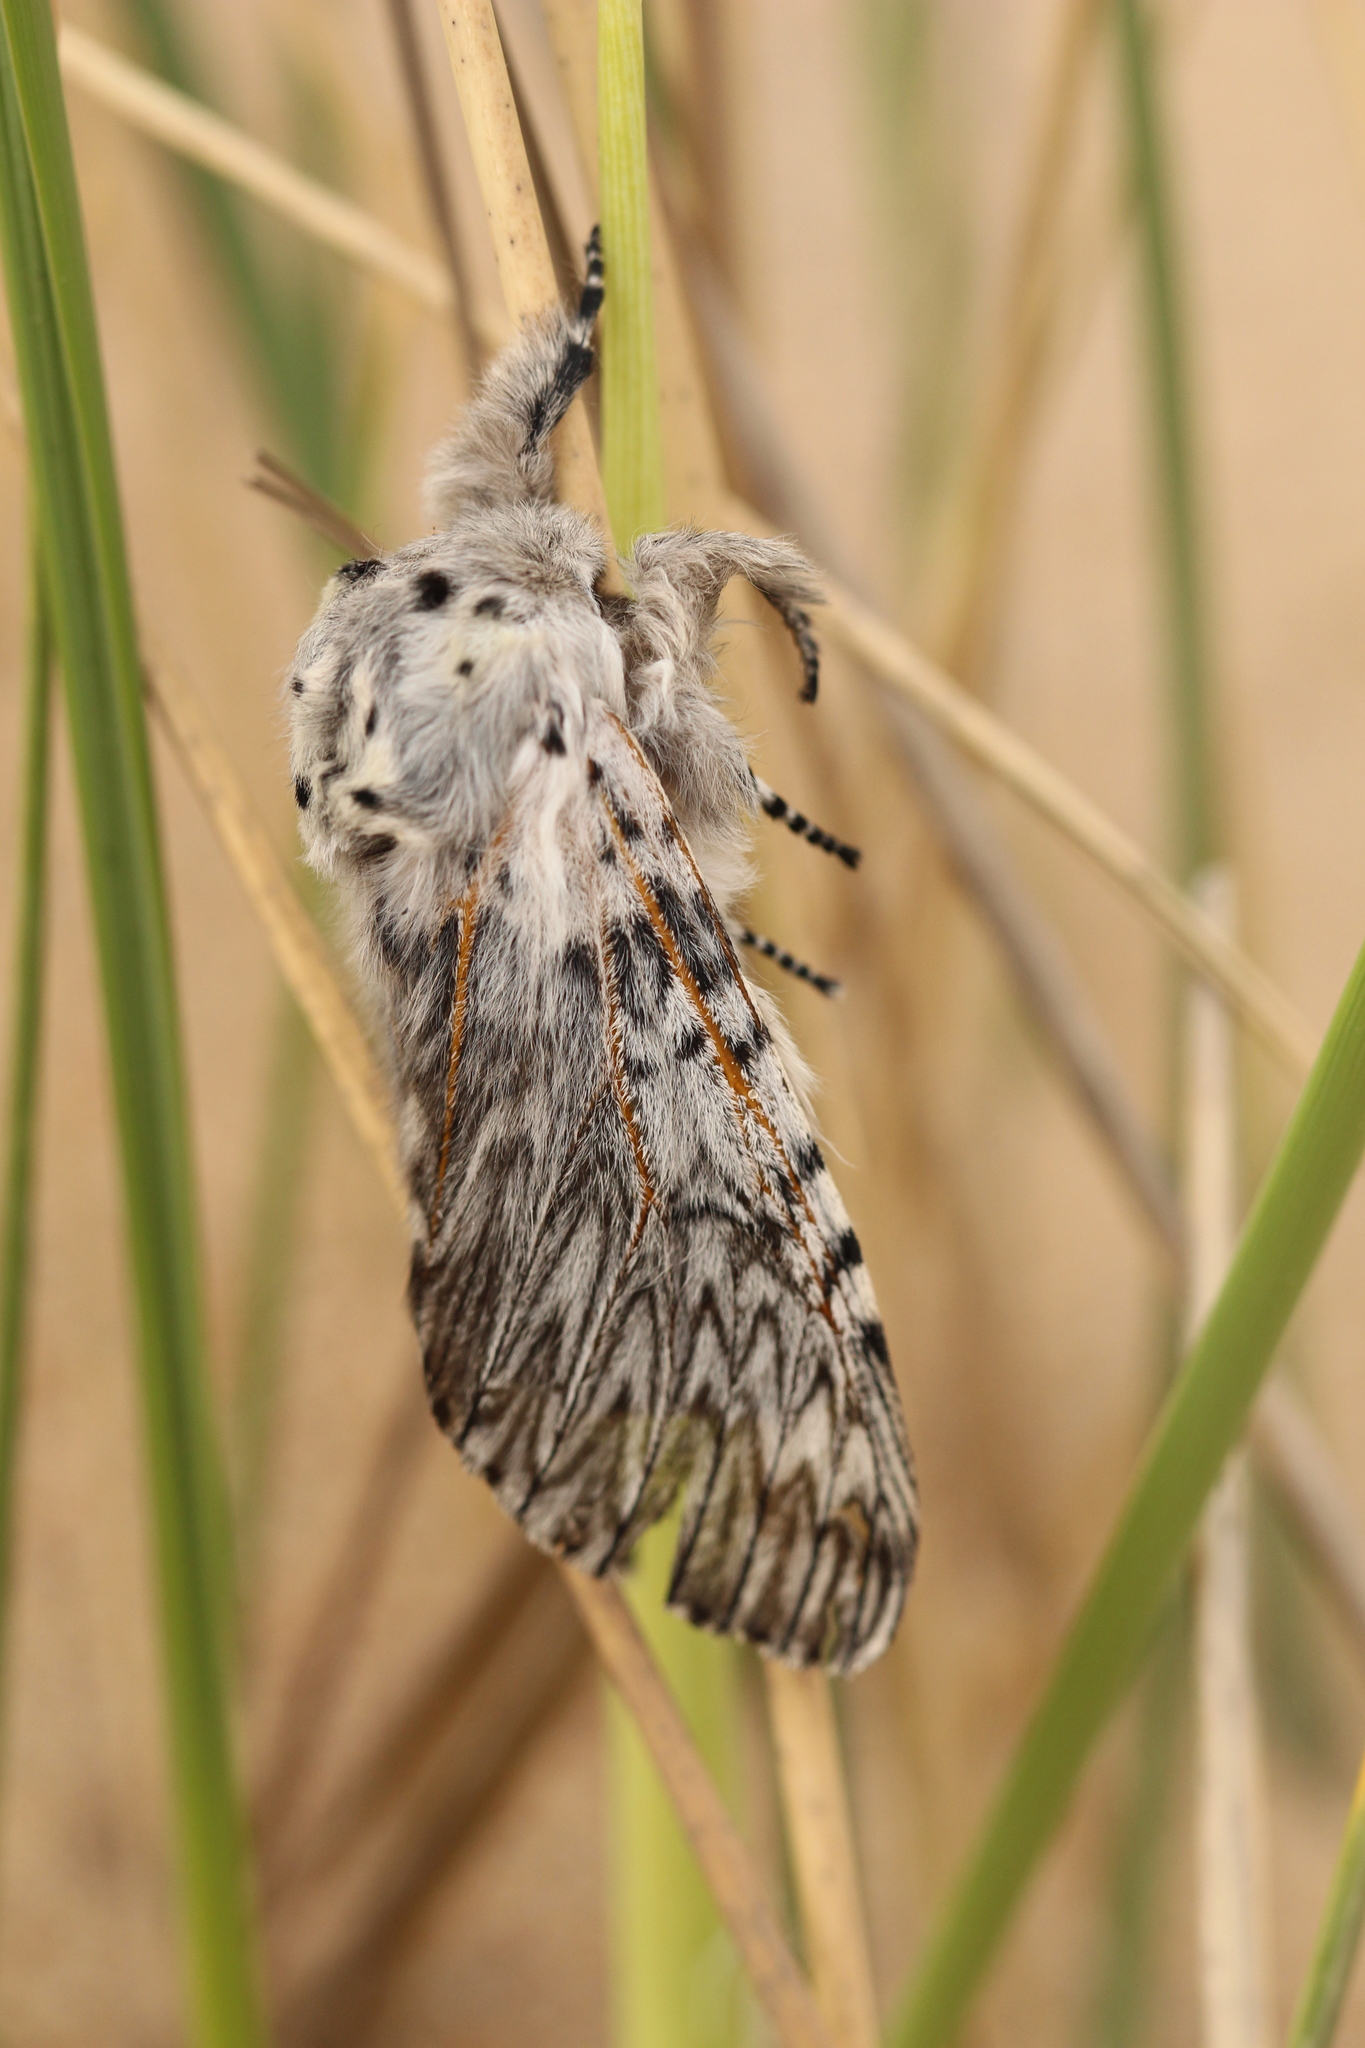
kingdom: Animalia
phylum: Arthropoda
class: Insecta
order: Lepidoptera
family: Notodontidae
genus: Cerura
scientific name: Cerura vinula
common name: Puss moth
